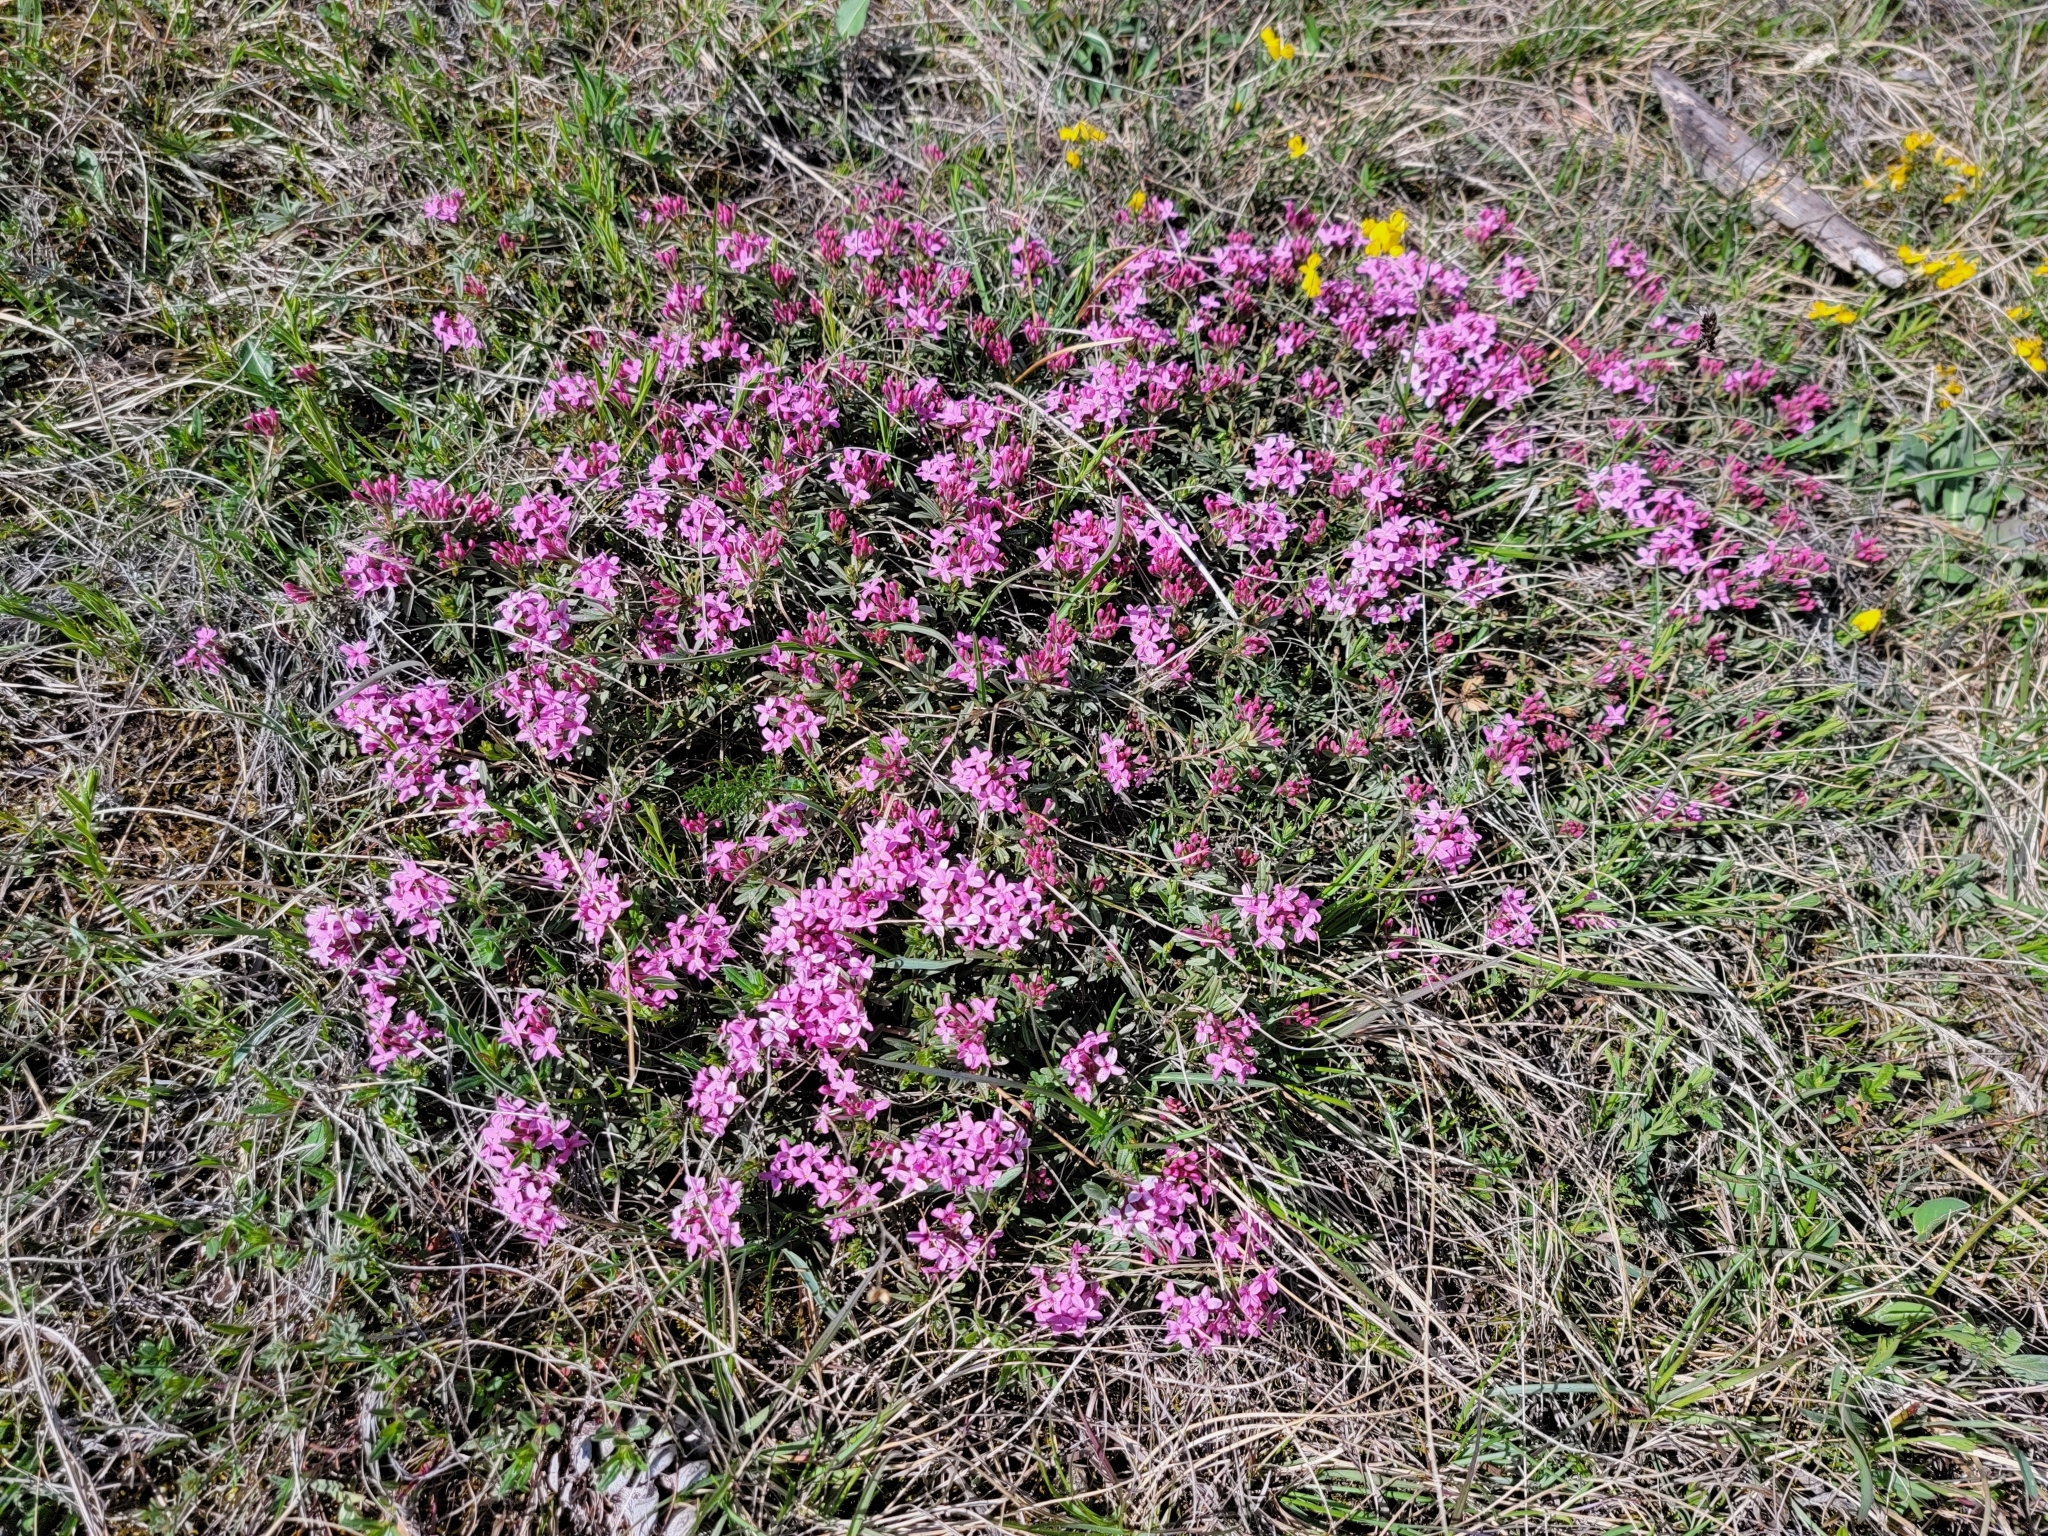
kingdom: Plantae
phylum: Tracheophyta
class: Magnoliopsida
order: Malvales
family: Thymelaeaceae
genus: Daphne
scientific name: Daphne cneorum
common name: Garland-flower
